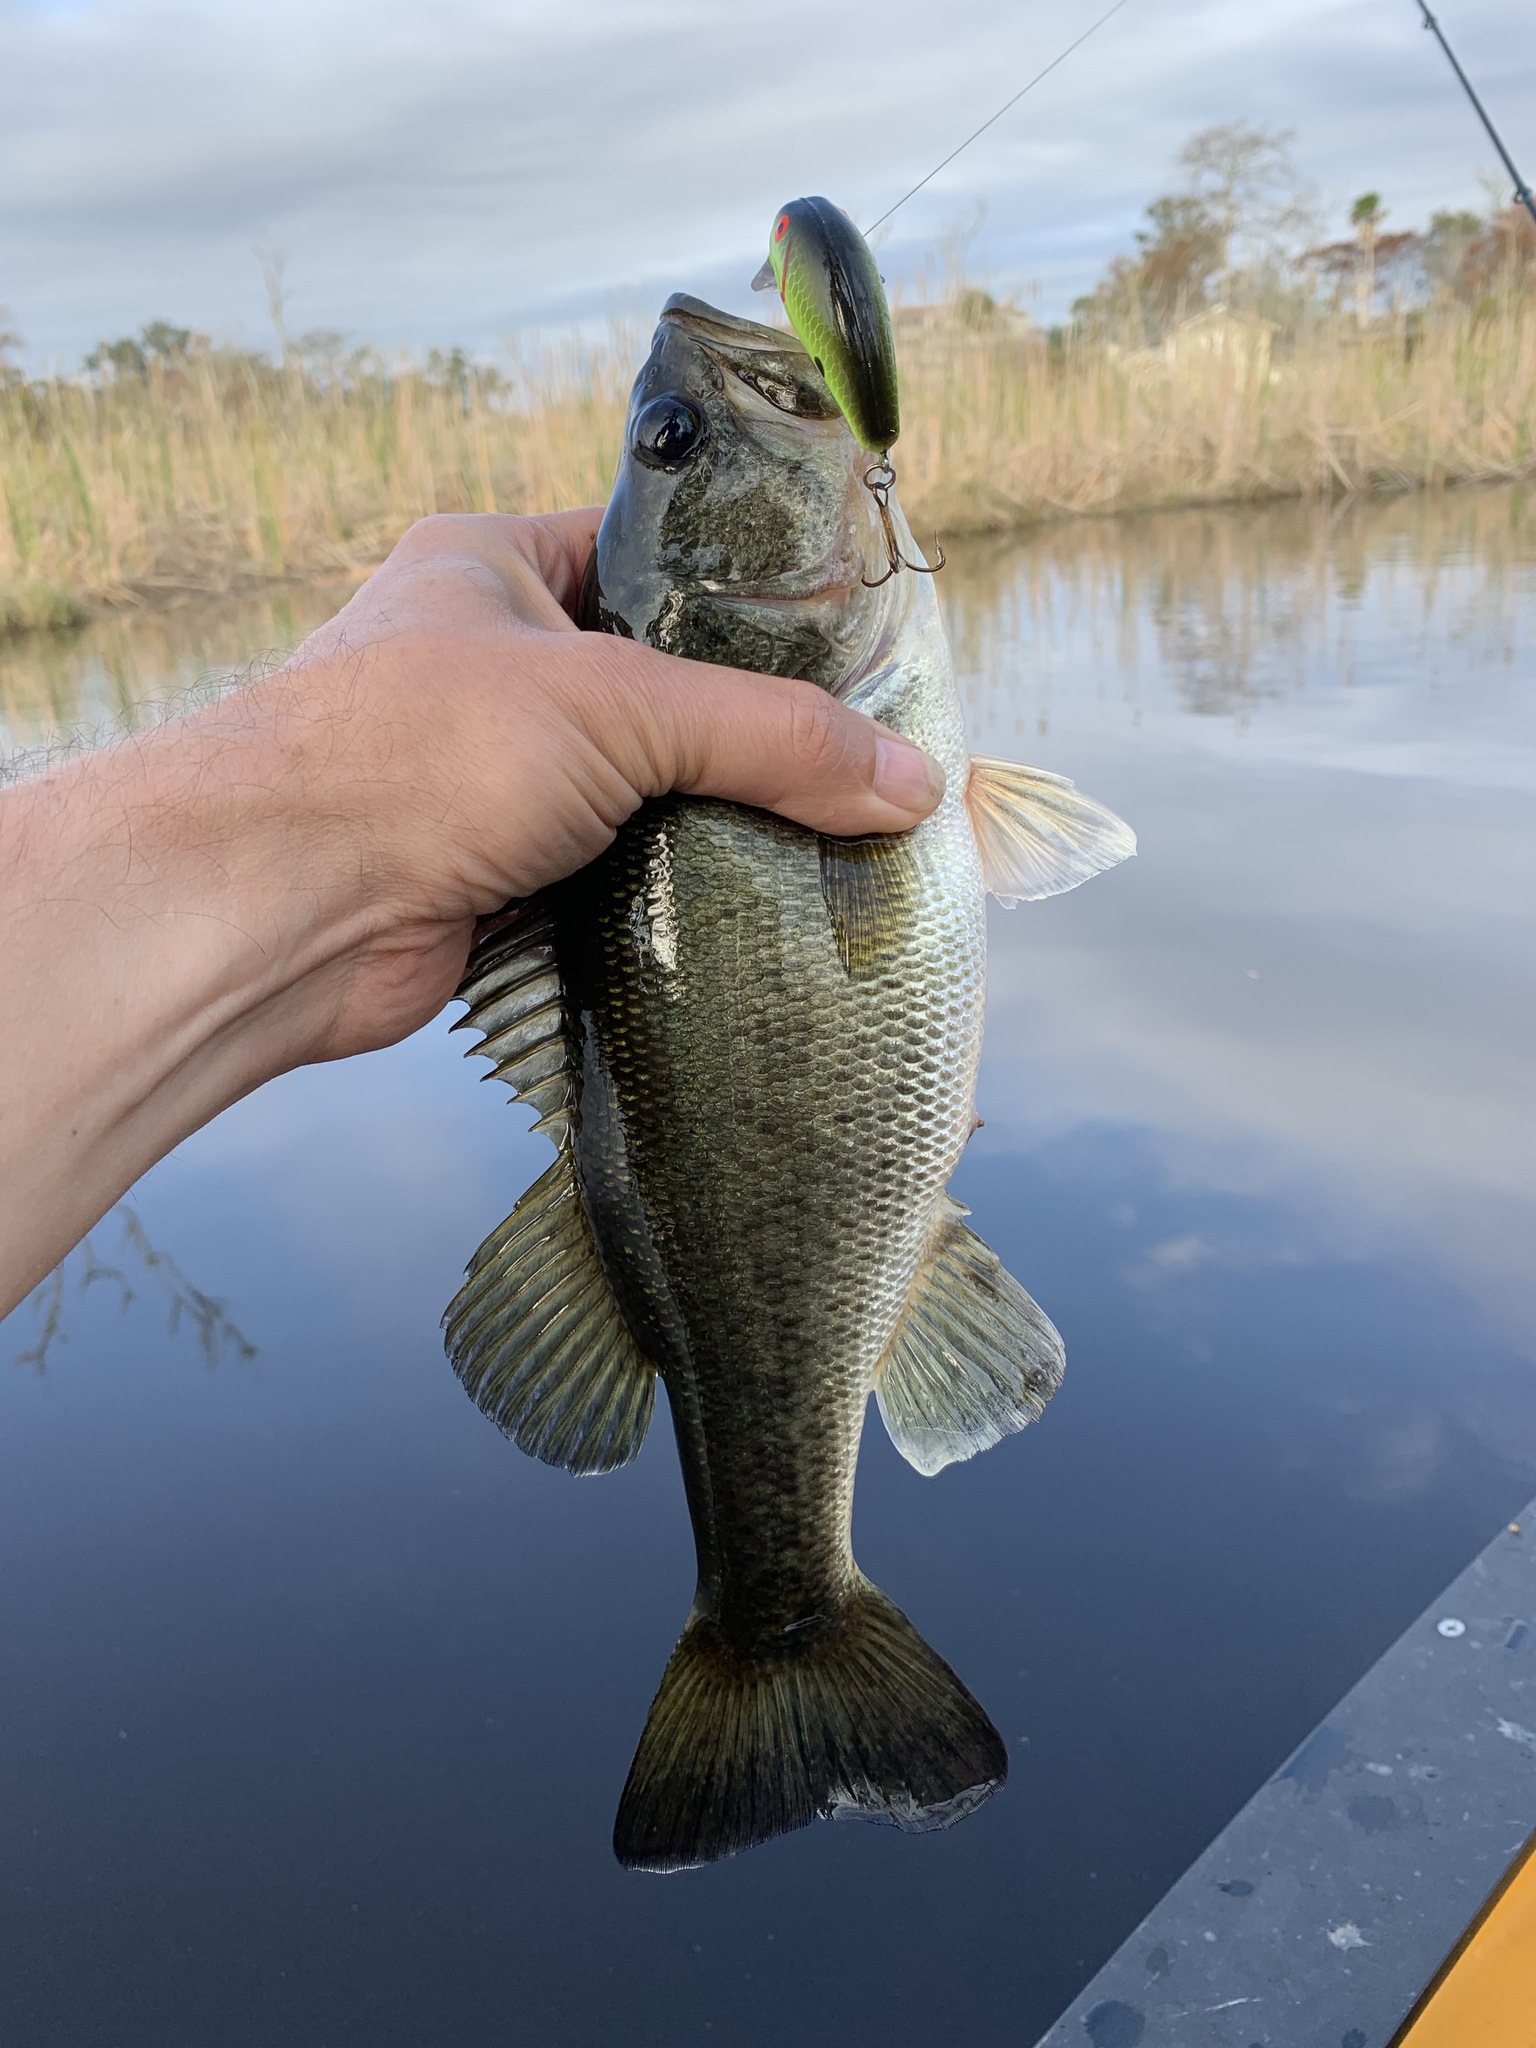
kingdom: Animalia
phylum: Chordata
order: Perciformes
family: Centrarchidae
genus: Micropterus
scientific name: Micropterus salmoides
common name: Largemouth bass
